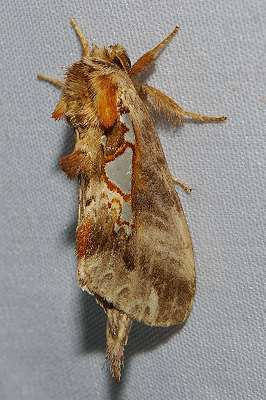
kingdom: Animalia
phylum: Arthropoda
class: Insecta
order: Lepidoptera
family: Notodontidae
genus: Spatalia
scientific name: Spatalia doerriesi
